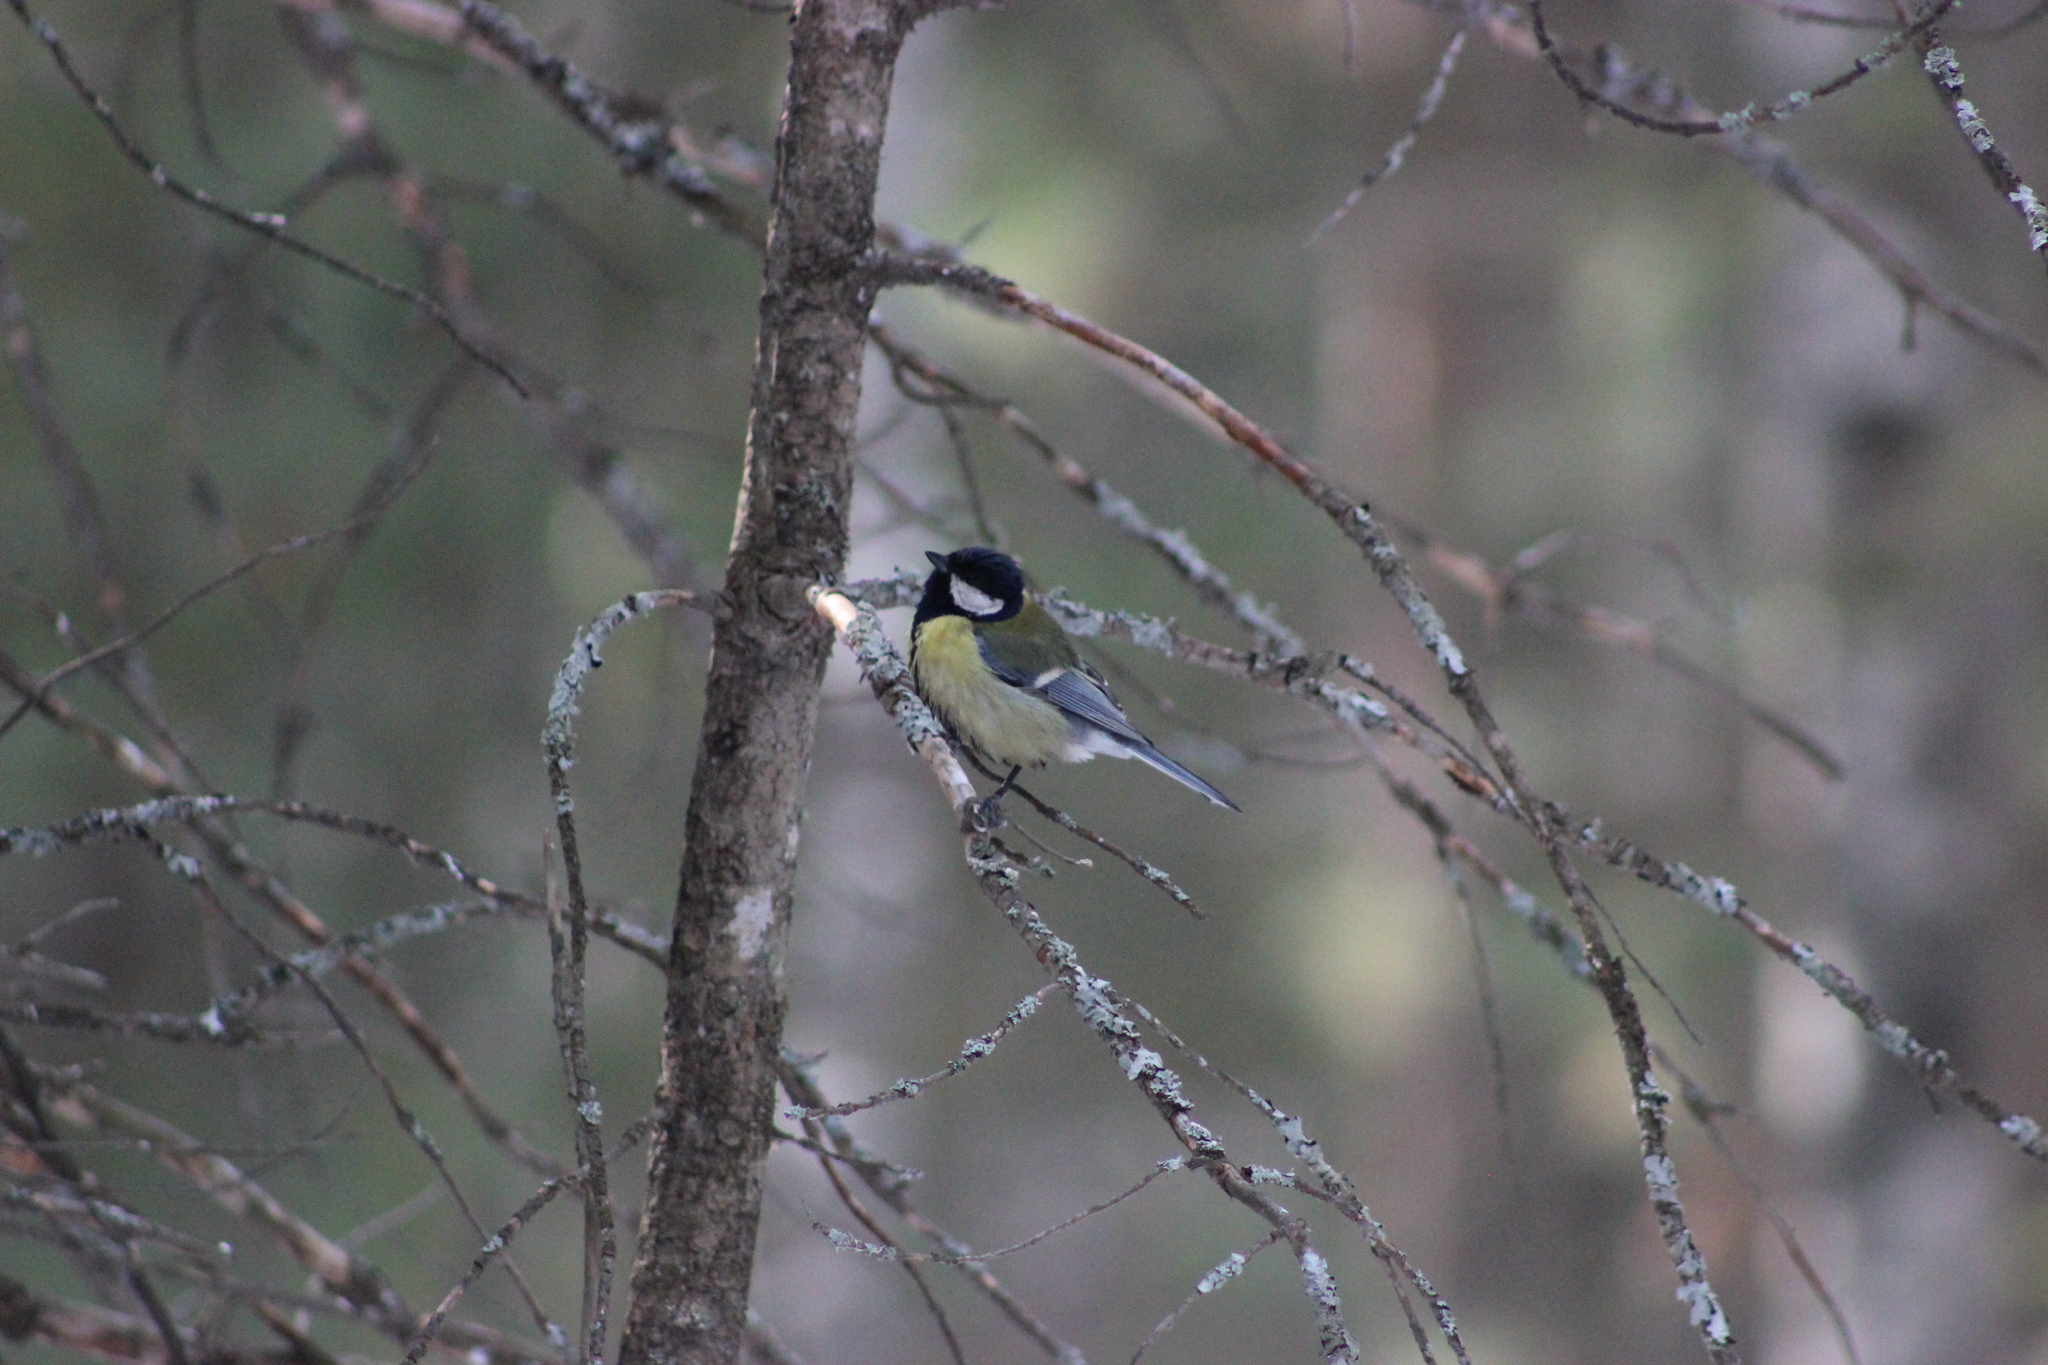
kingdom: Animalia
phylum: Chordata
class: Aves
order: Passeriformes
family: Paridae
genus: Parus
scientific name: Parus major
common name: Great tit
